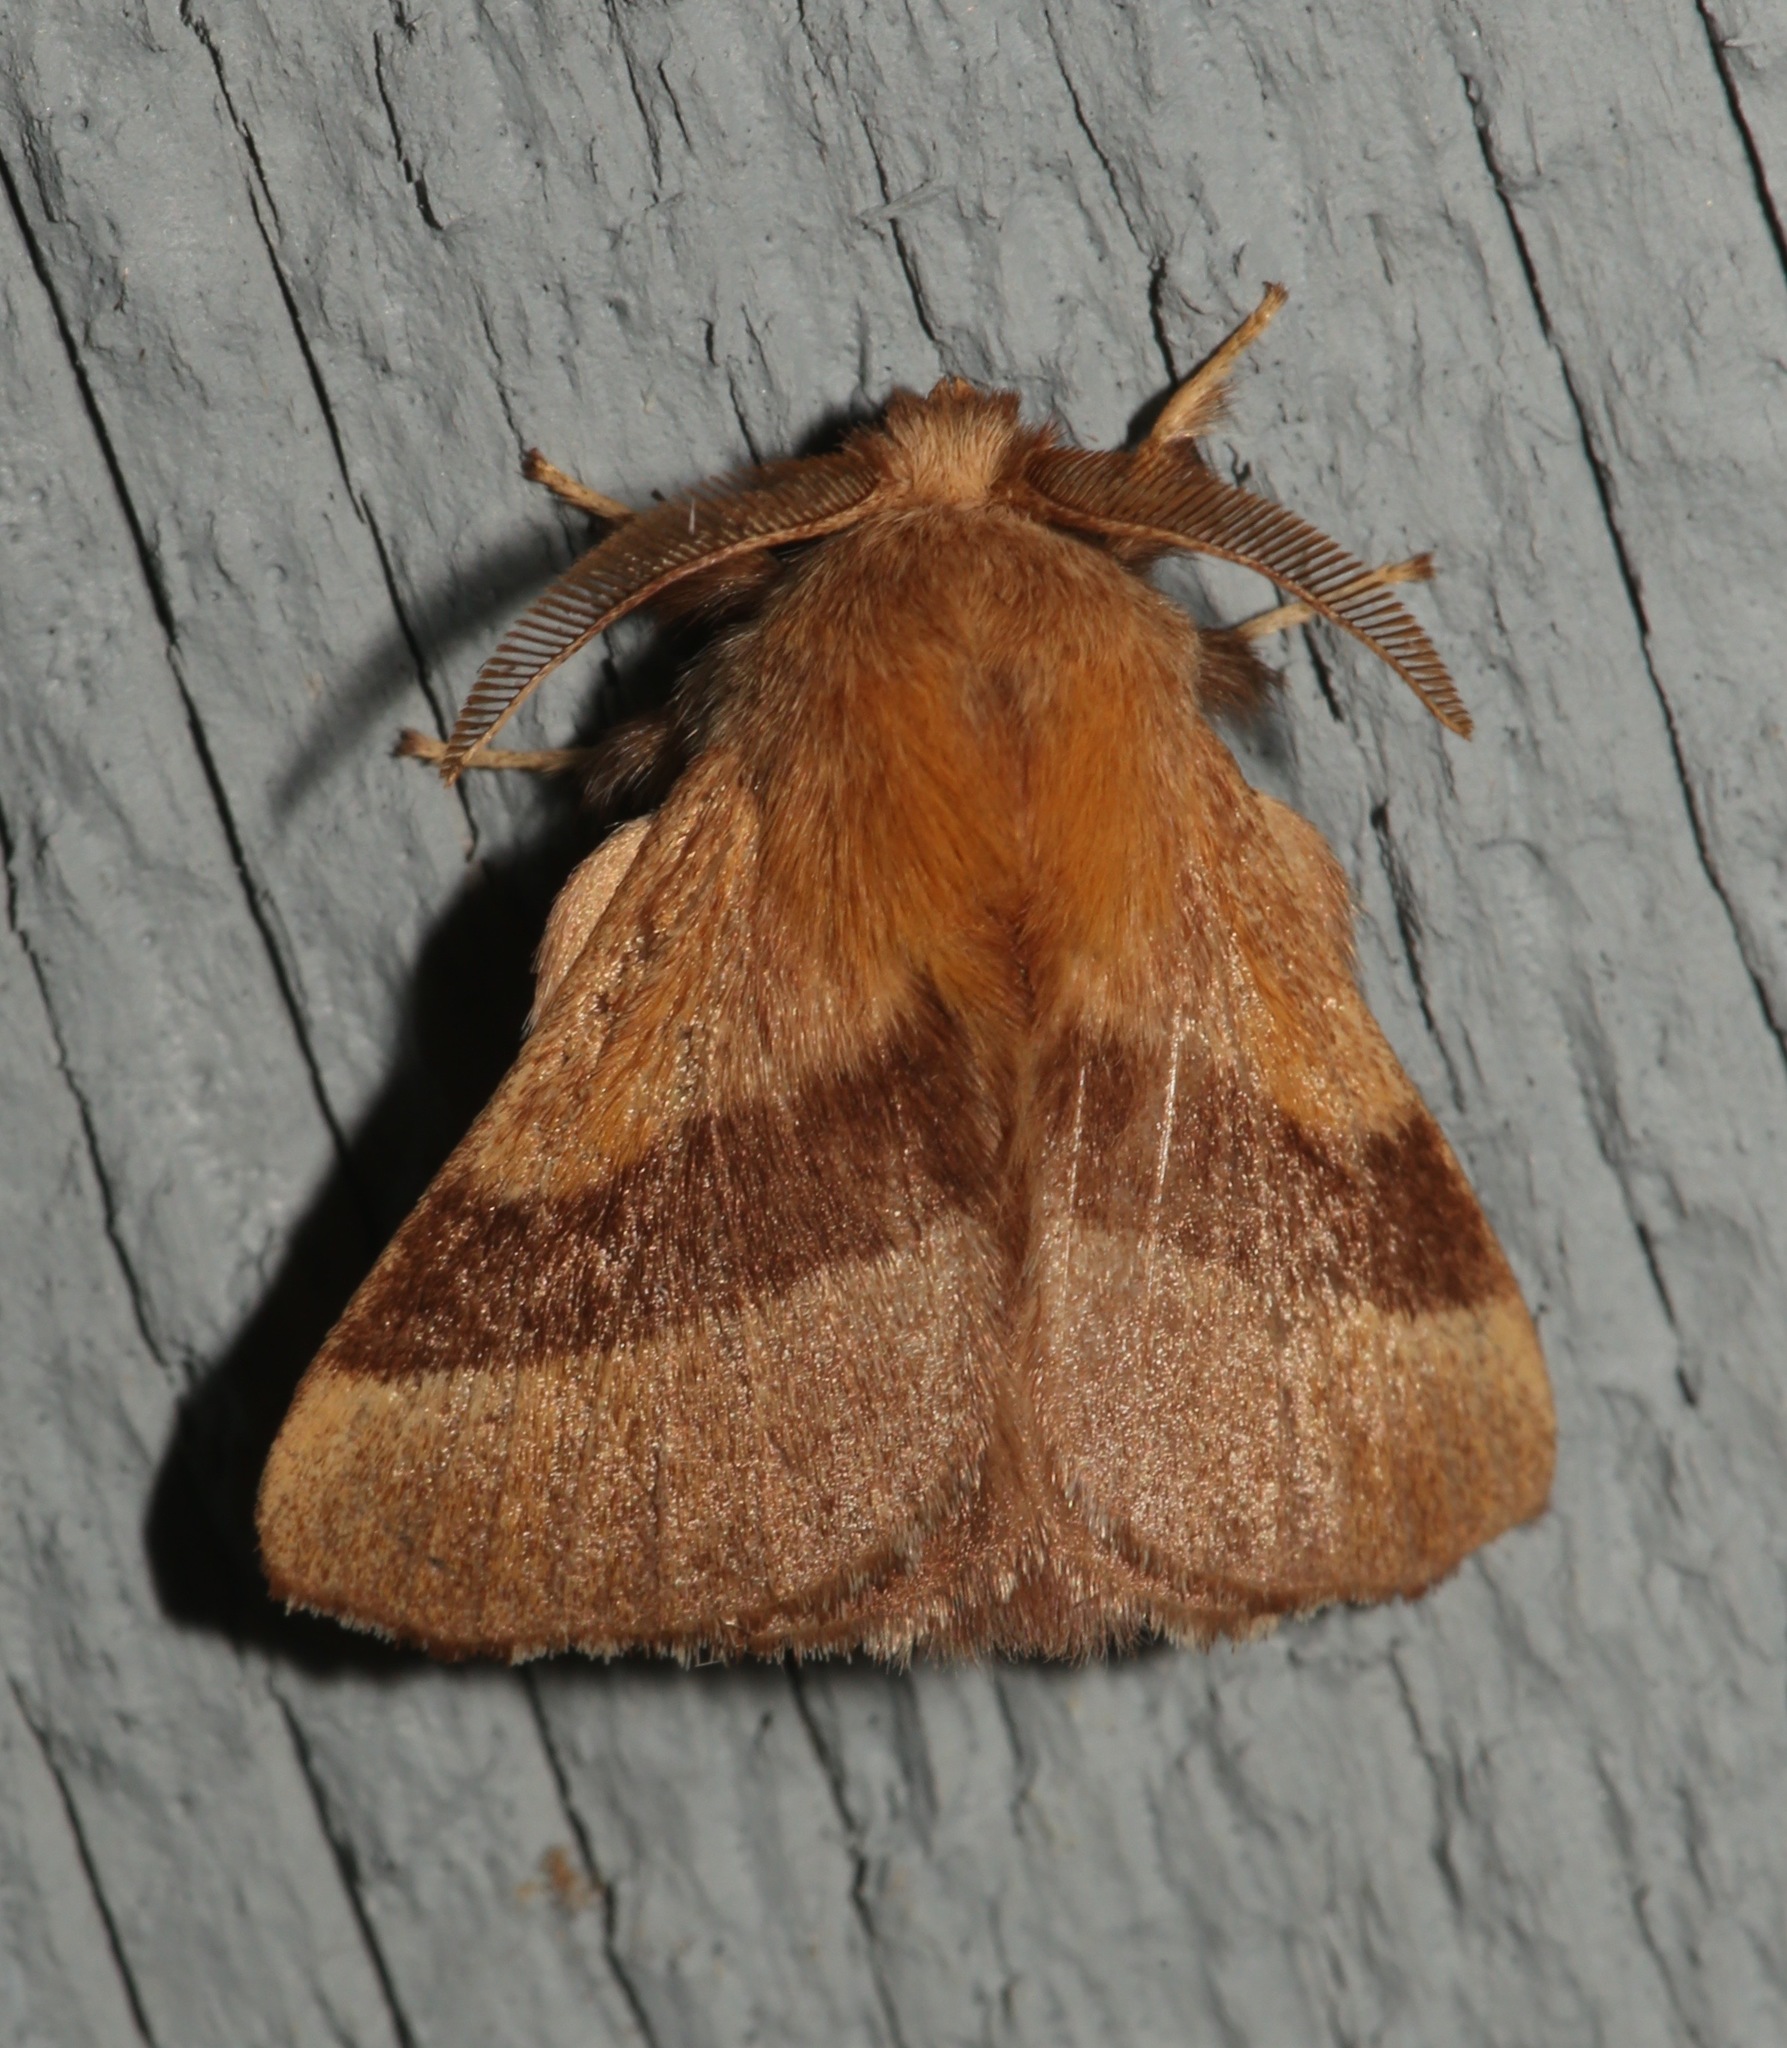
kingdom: Animalia
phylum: Arthropoda
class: Insecta
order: Lepidoptera
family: Lasiocampidae
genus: Malacosoma
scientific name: Malacosoma disstria
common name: Forest tent caterpillar
